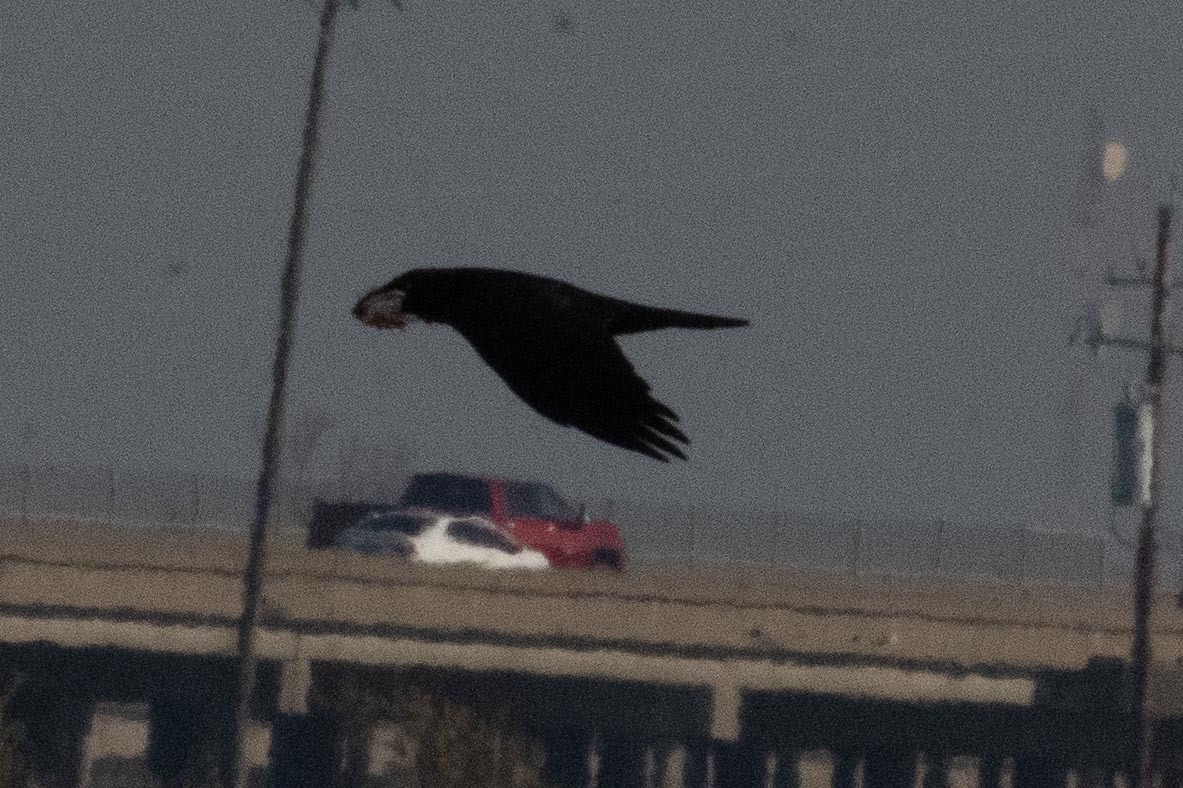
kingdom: Animalia
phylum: Chordata
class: Aves
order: Passeriformes
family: Corvidae
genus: Corvus
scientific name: Corvus corax
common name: Common raven
